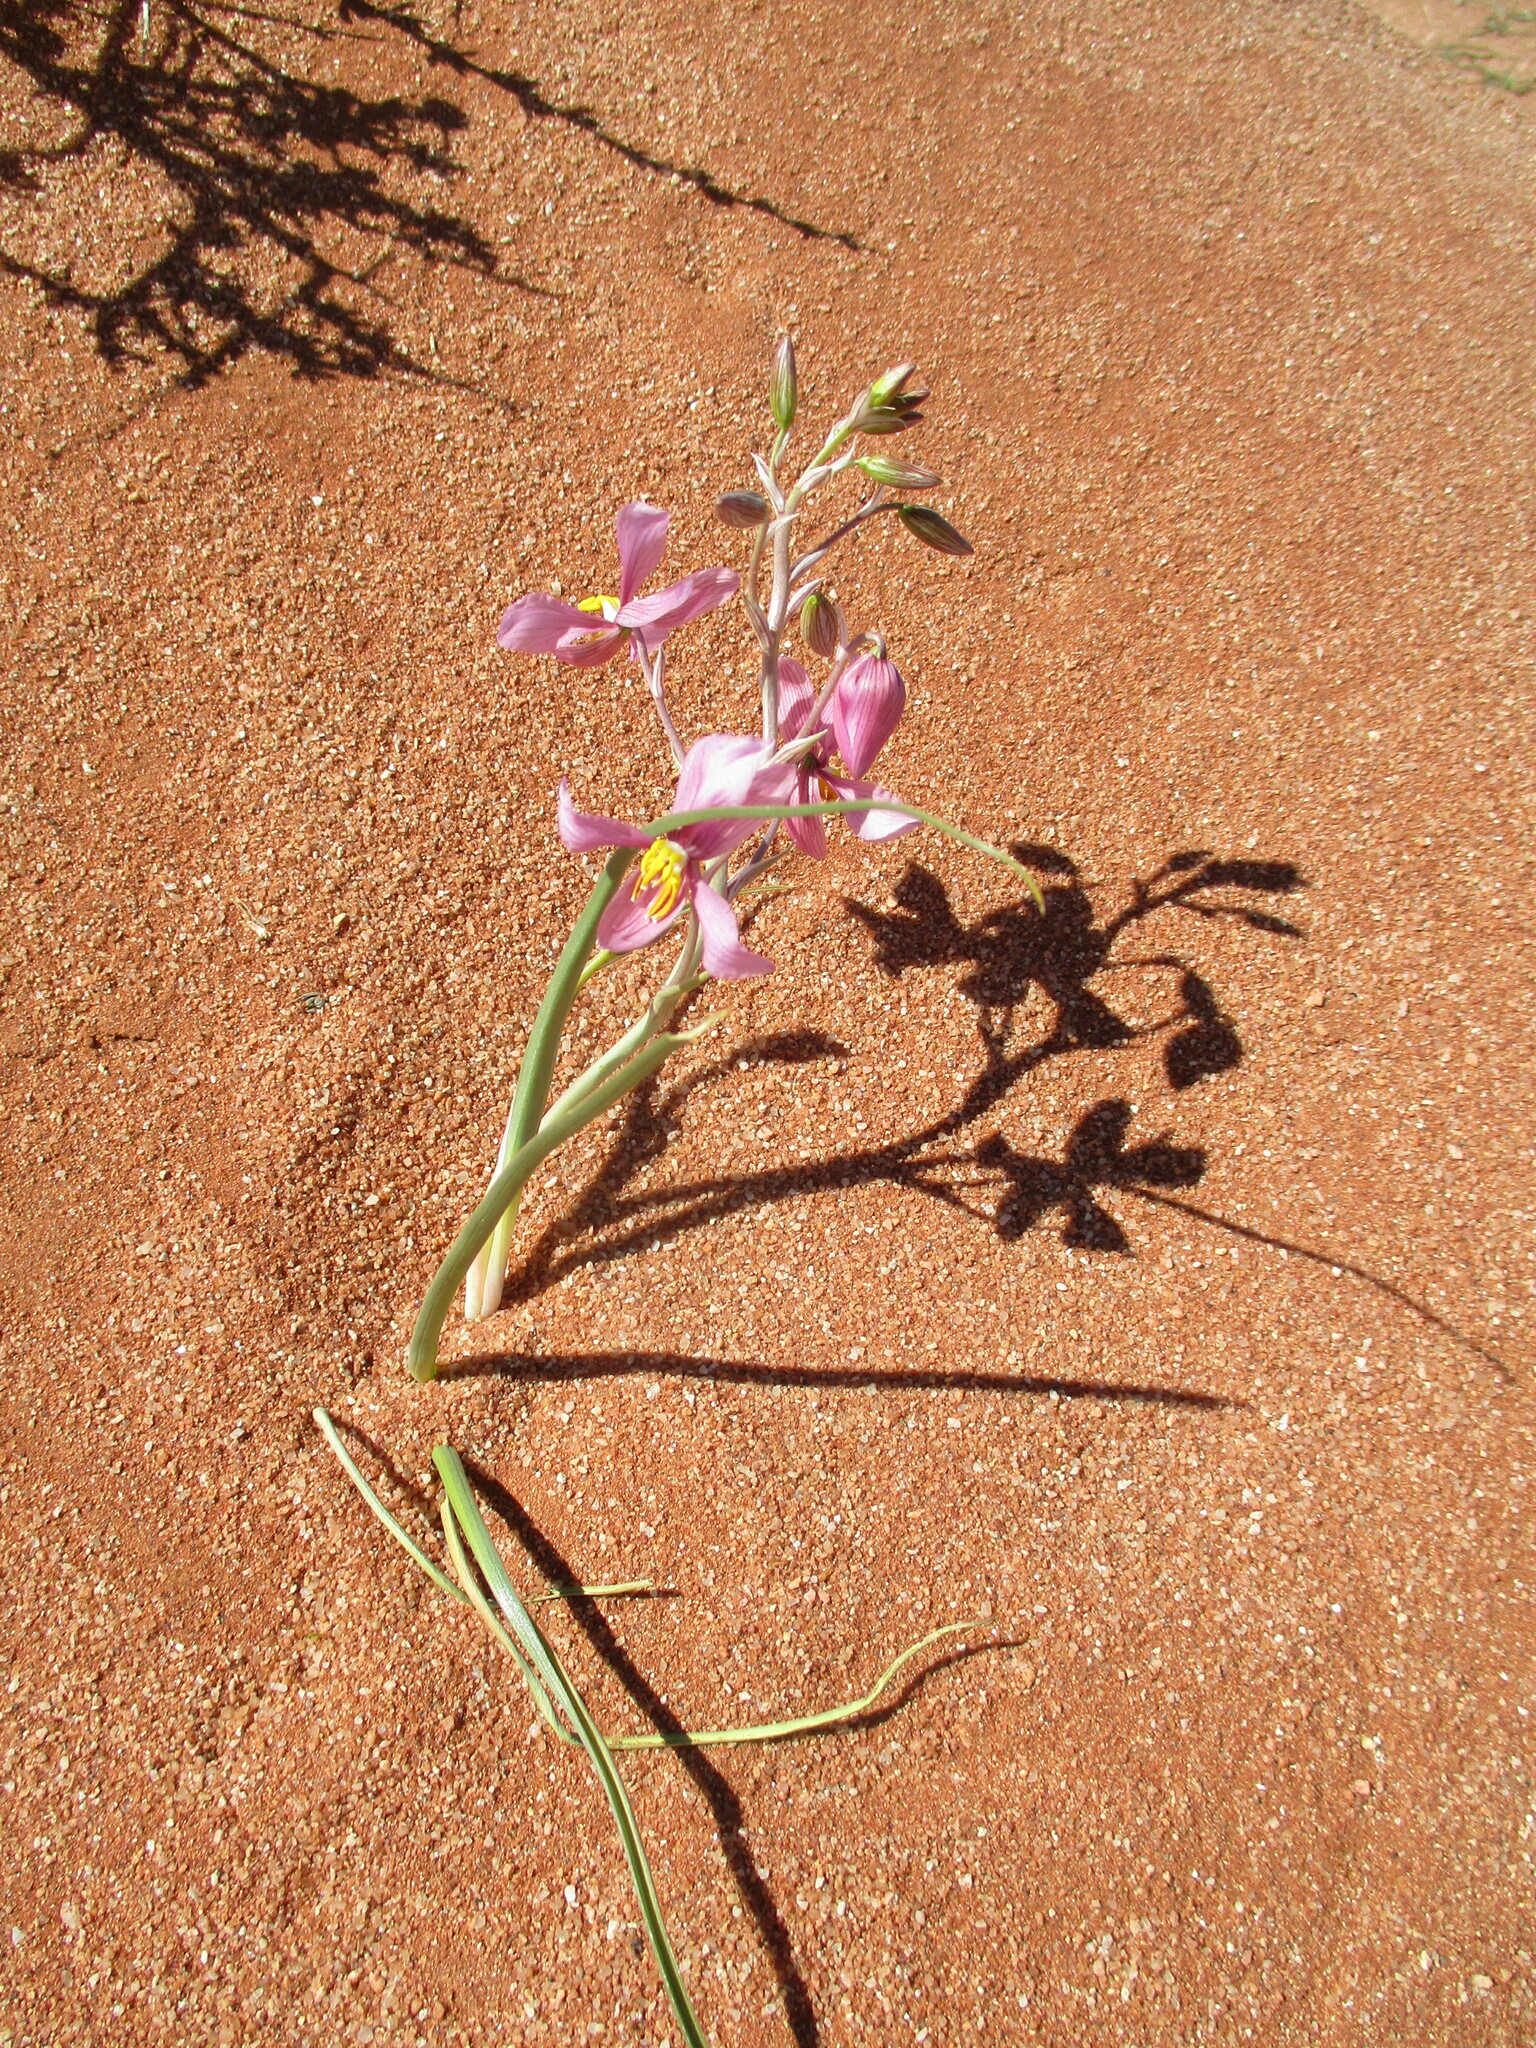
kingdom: Plantae
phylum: Tracheophyta
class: Liliopsida
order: Asparagales
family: Tecophilaeaceae
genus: Cyanella
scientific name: Cyanella ramosissima
